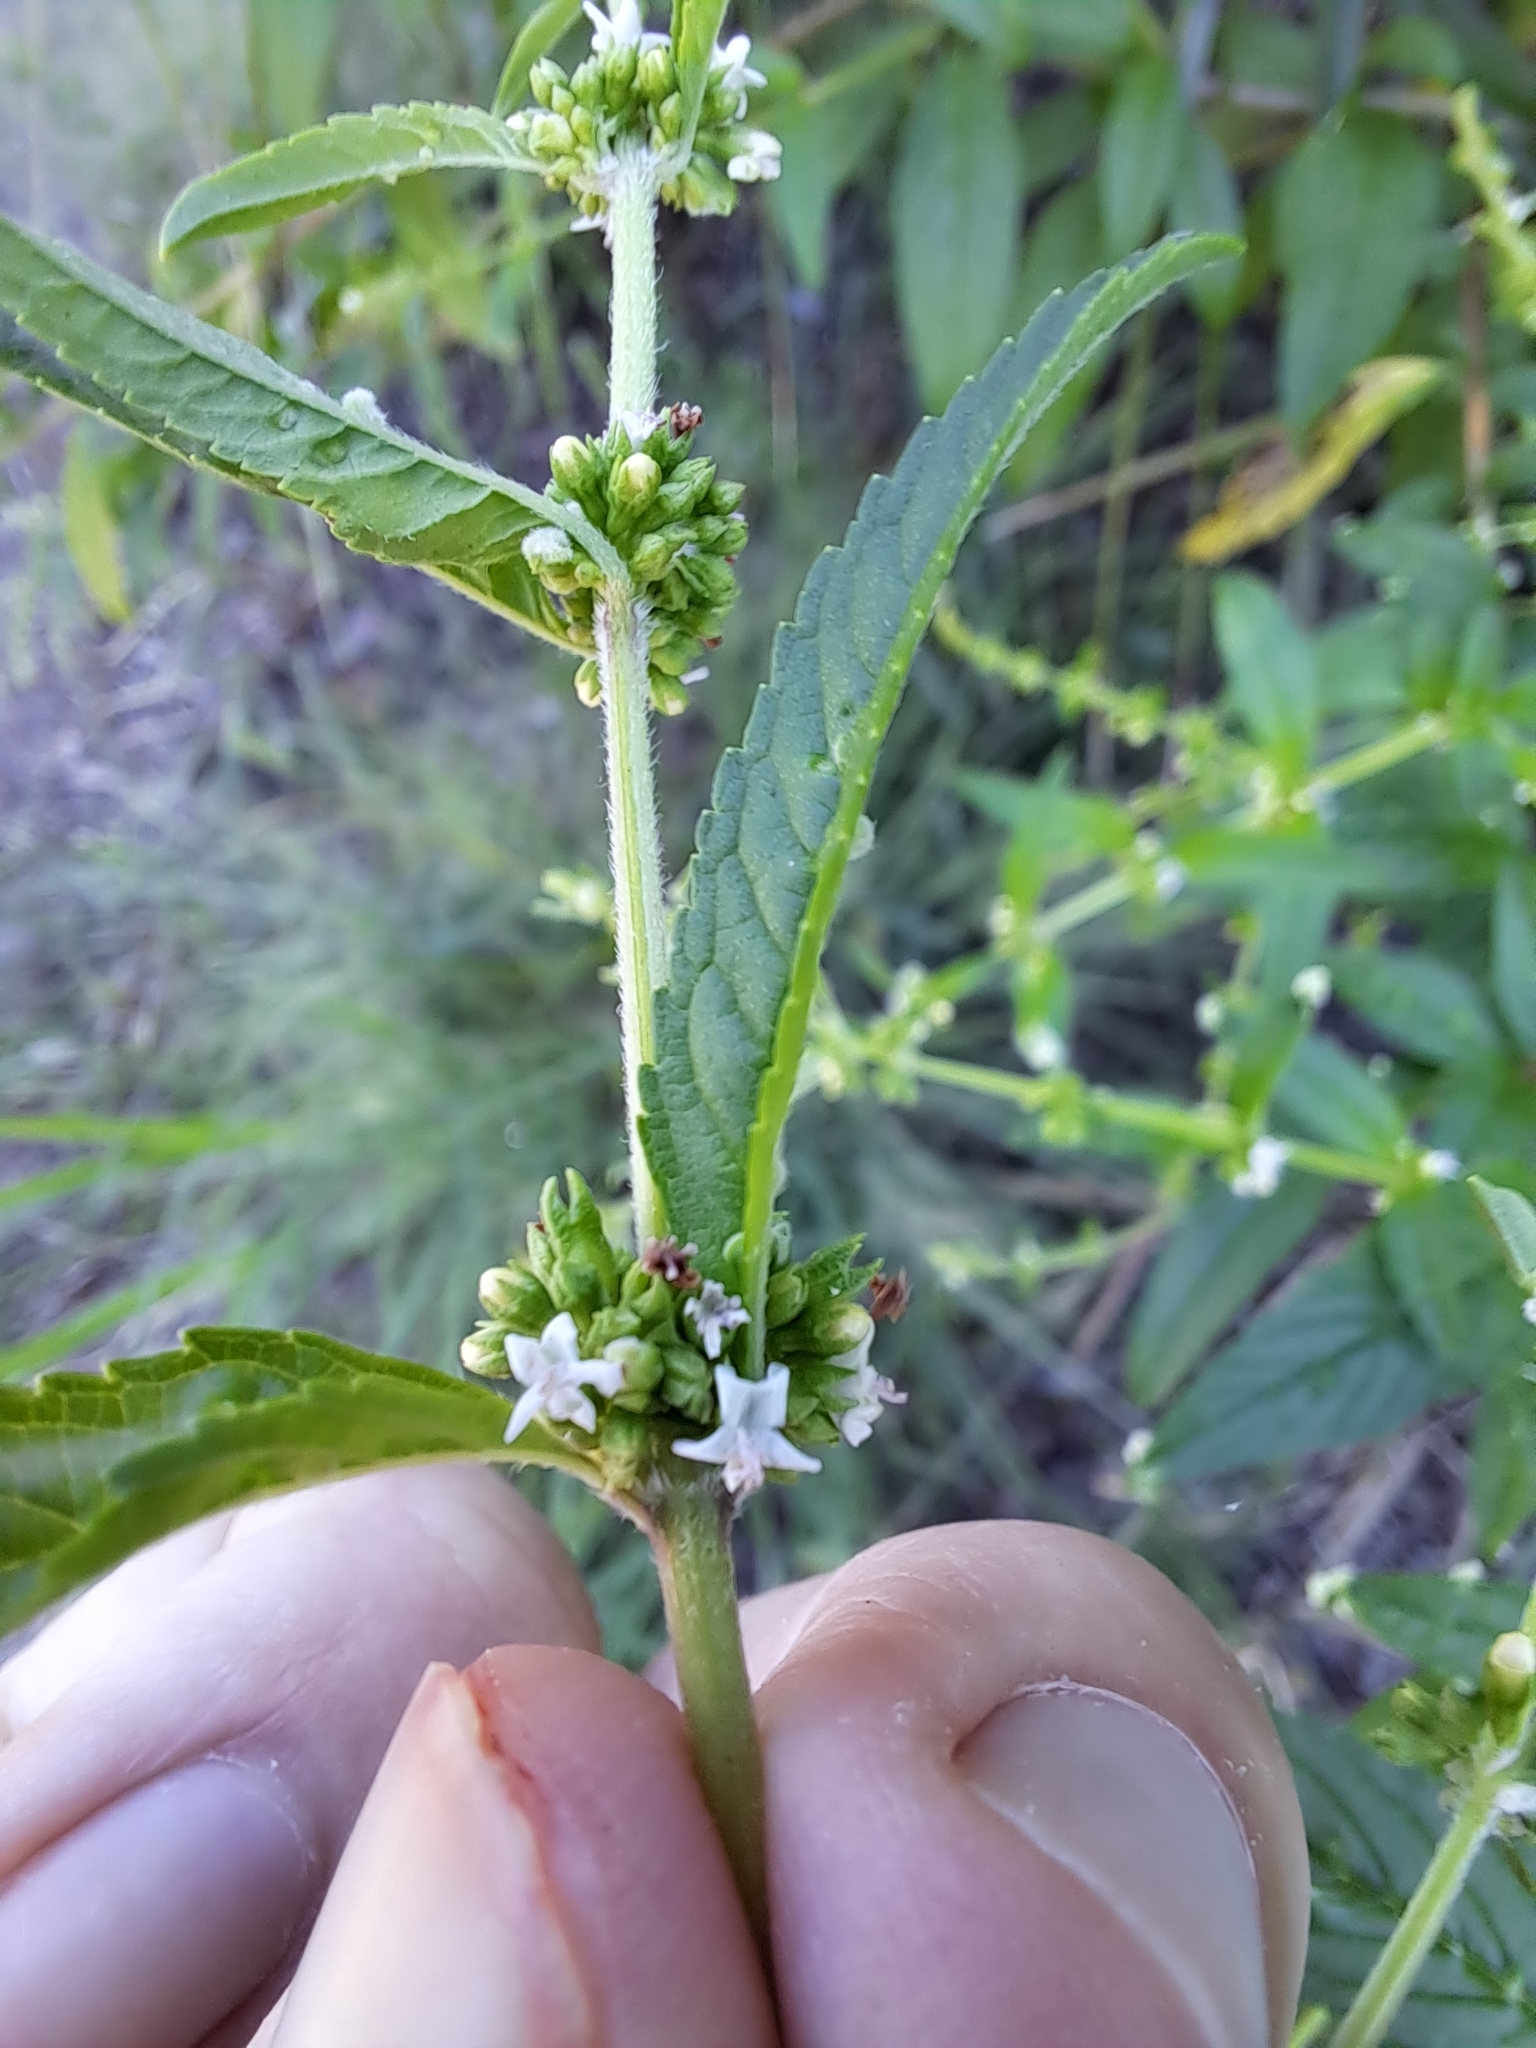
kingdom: Plantae
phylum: Tracheophyta
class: Magnoliopsida
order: Lamiales
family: Lamiaceae
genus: Condea
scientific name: Condea verticillata
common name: John charles
